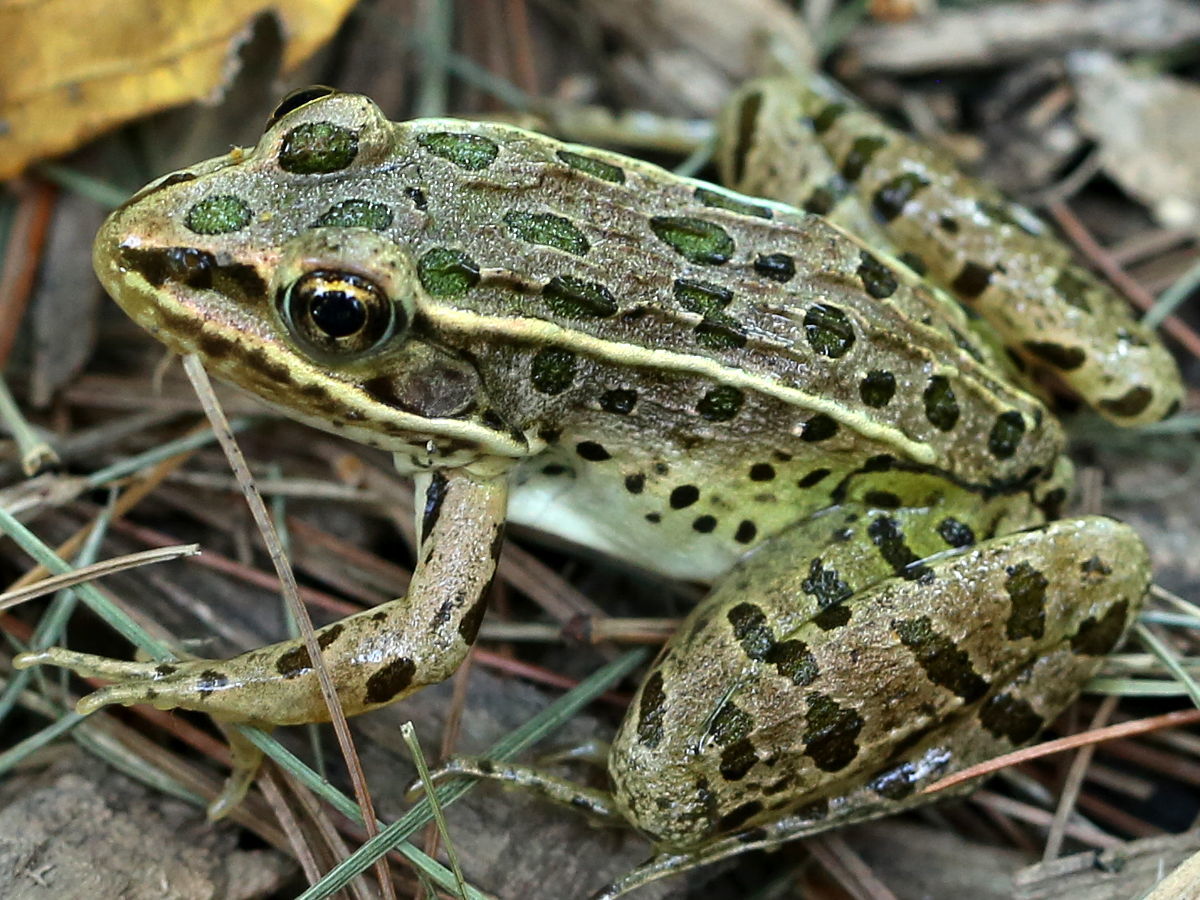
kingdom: Animalia
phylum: Chordata
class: Amphibia
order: Anura
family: Ranidae
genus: Lithobates
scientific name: Lithobates pipiens
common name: Northern leopard frog
